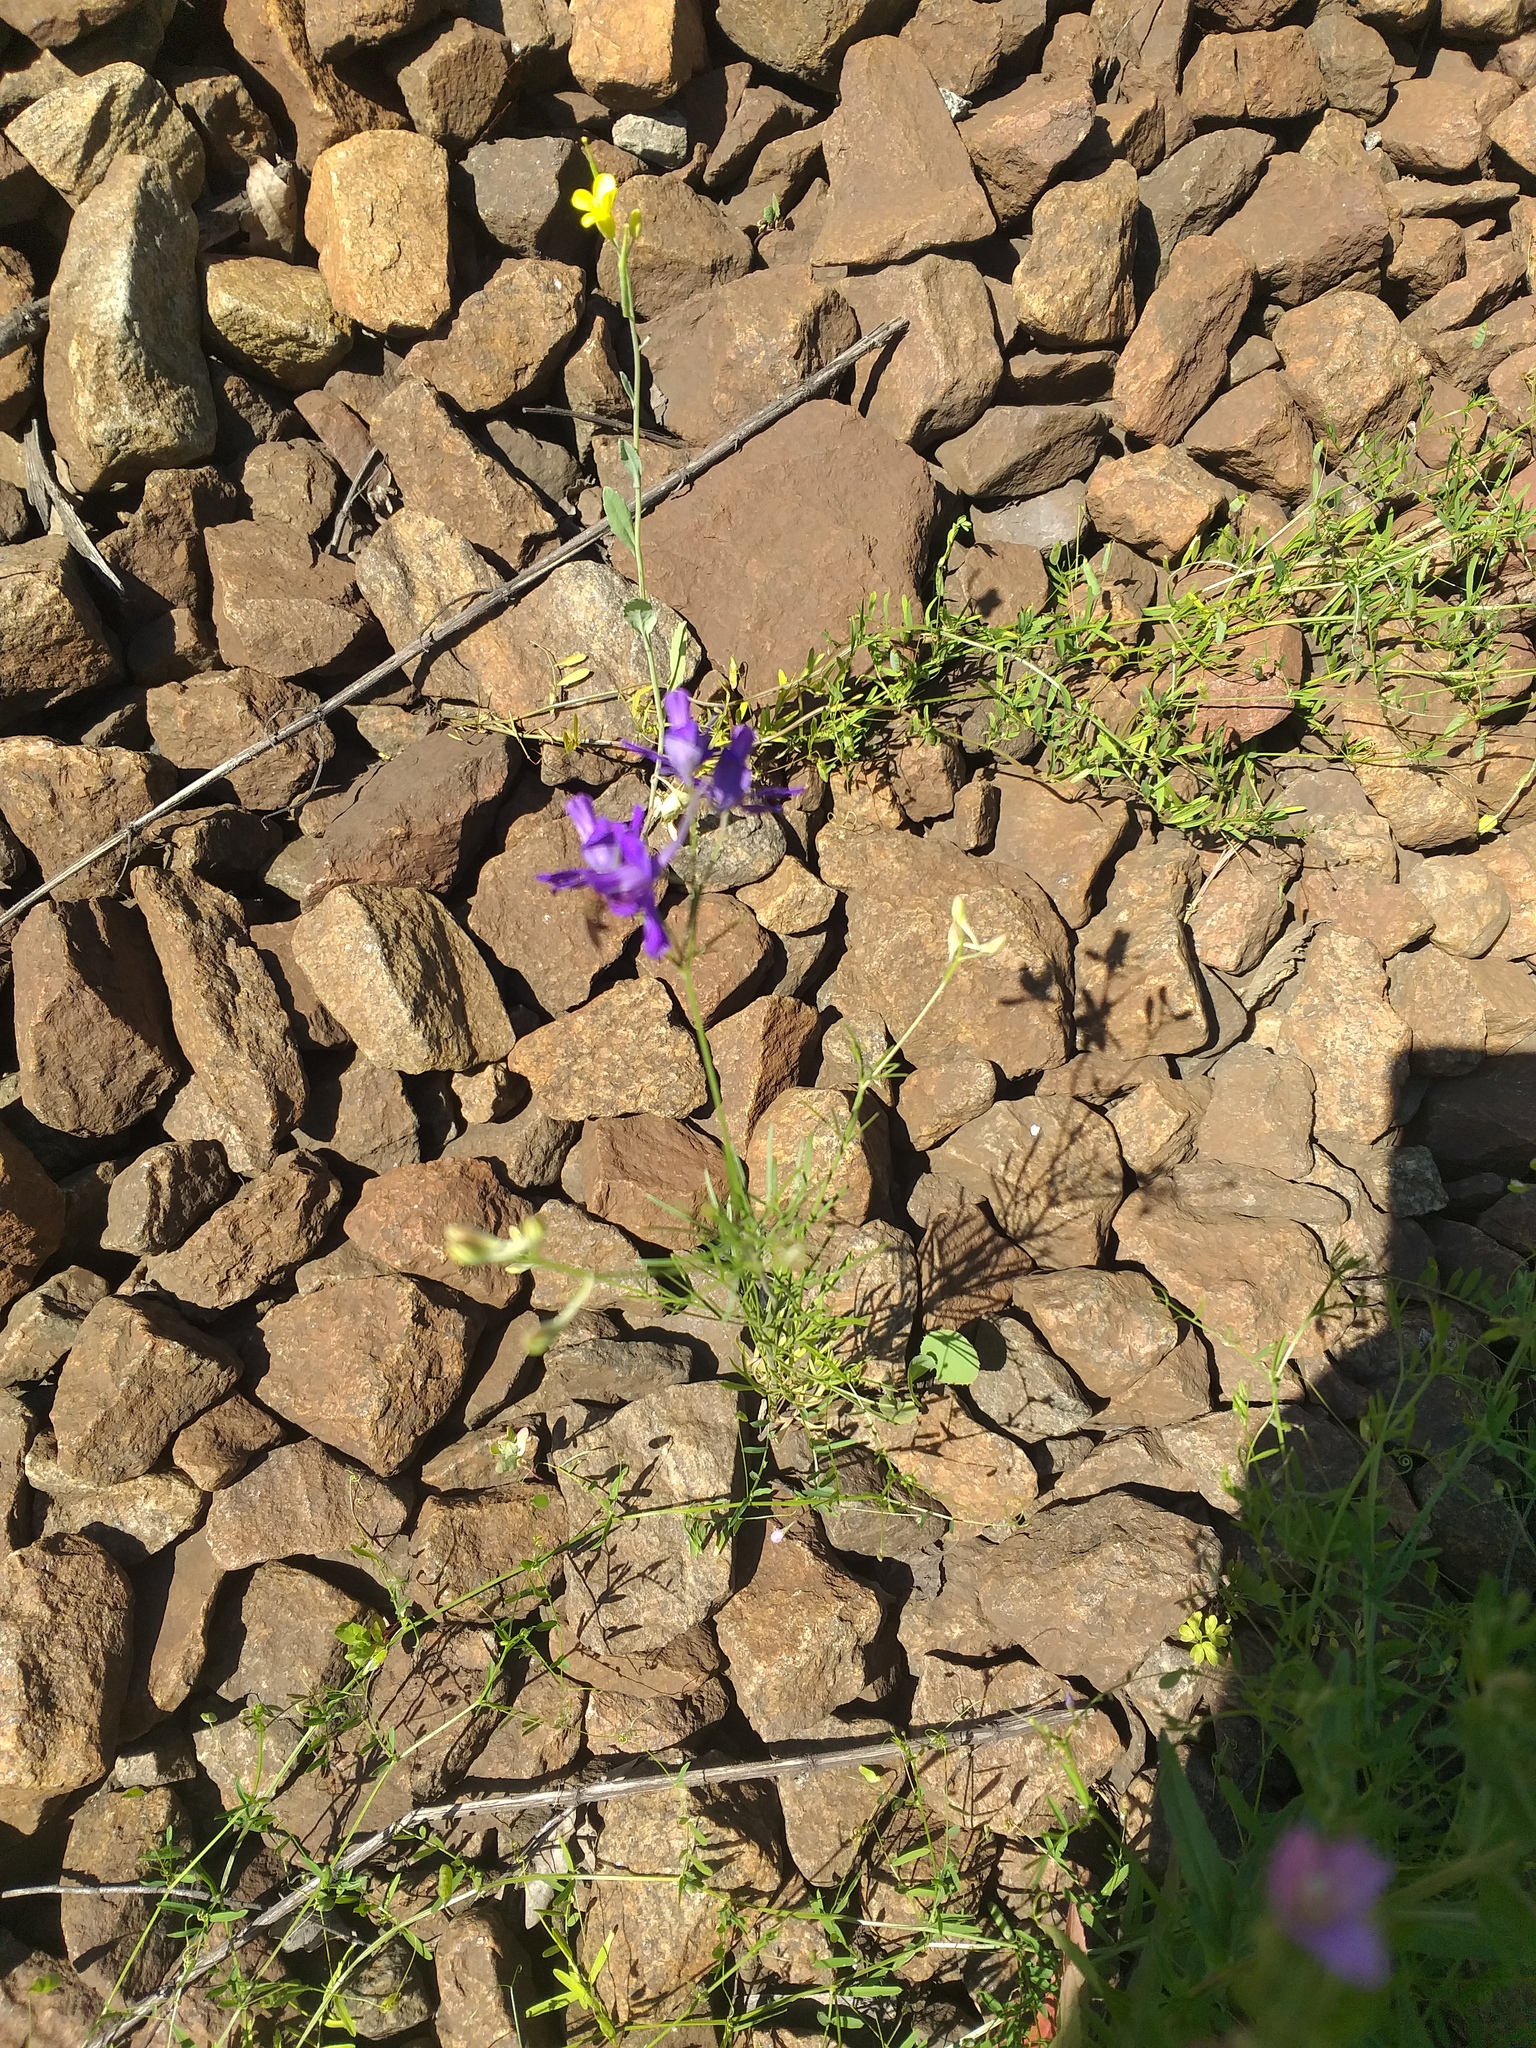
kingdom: Plantae
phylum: Tracheophyta
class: Magnoliopsida
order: Ranunculales
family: Ranunculaceae
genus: Delphinium
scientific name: Delphinium consolida
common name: Branching larkspur
